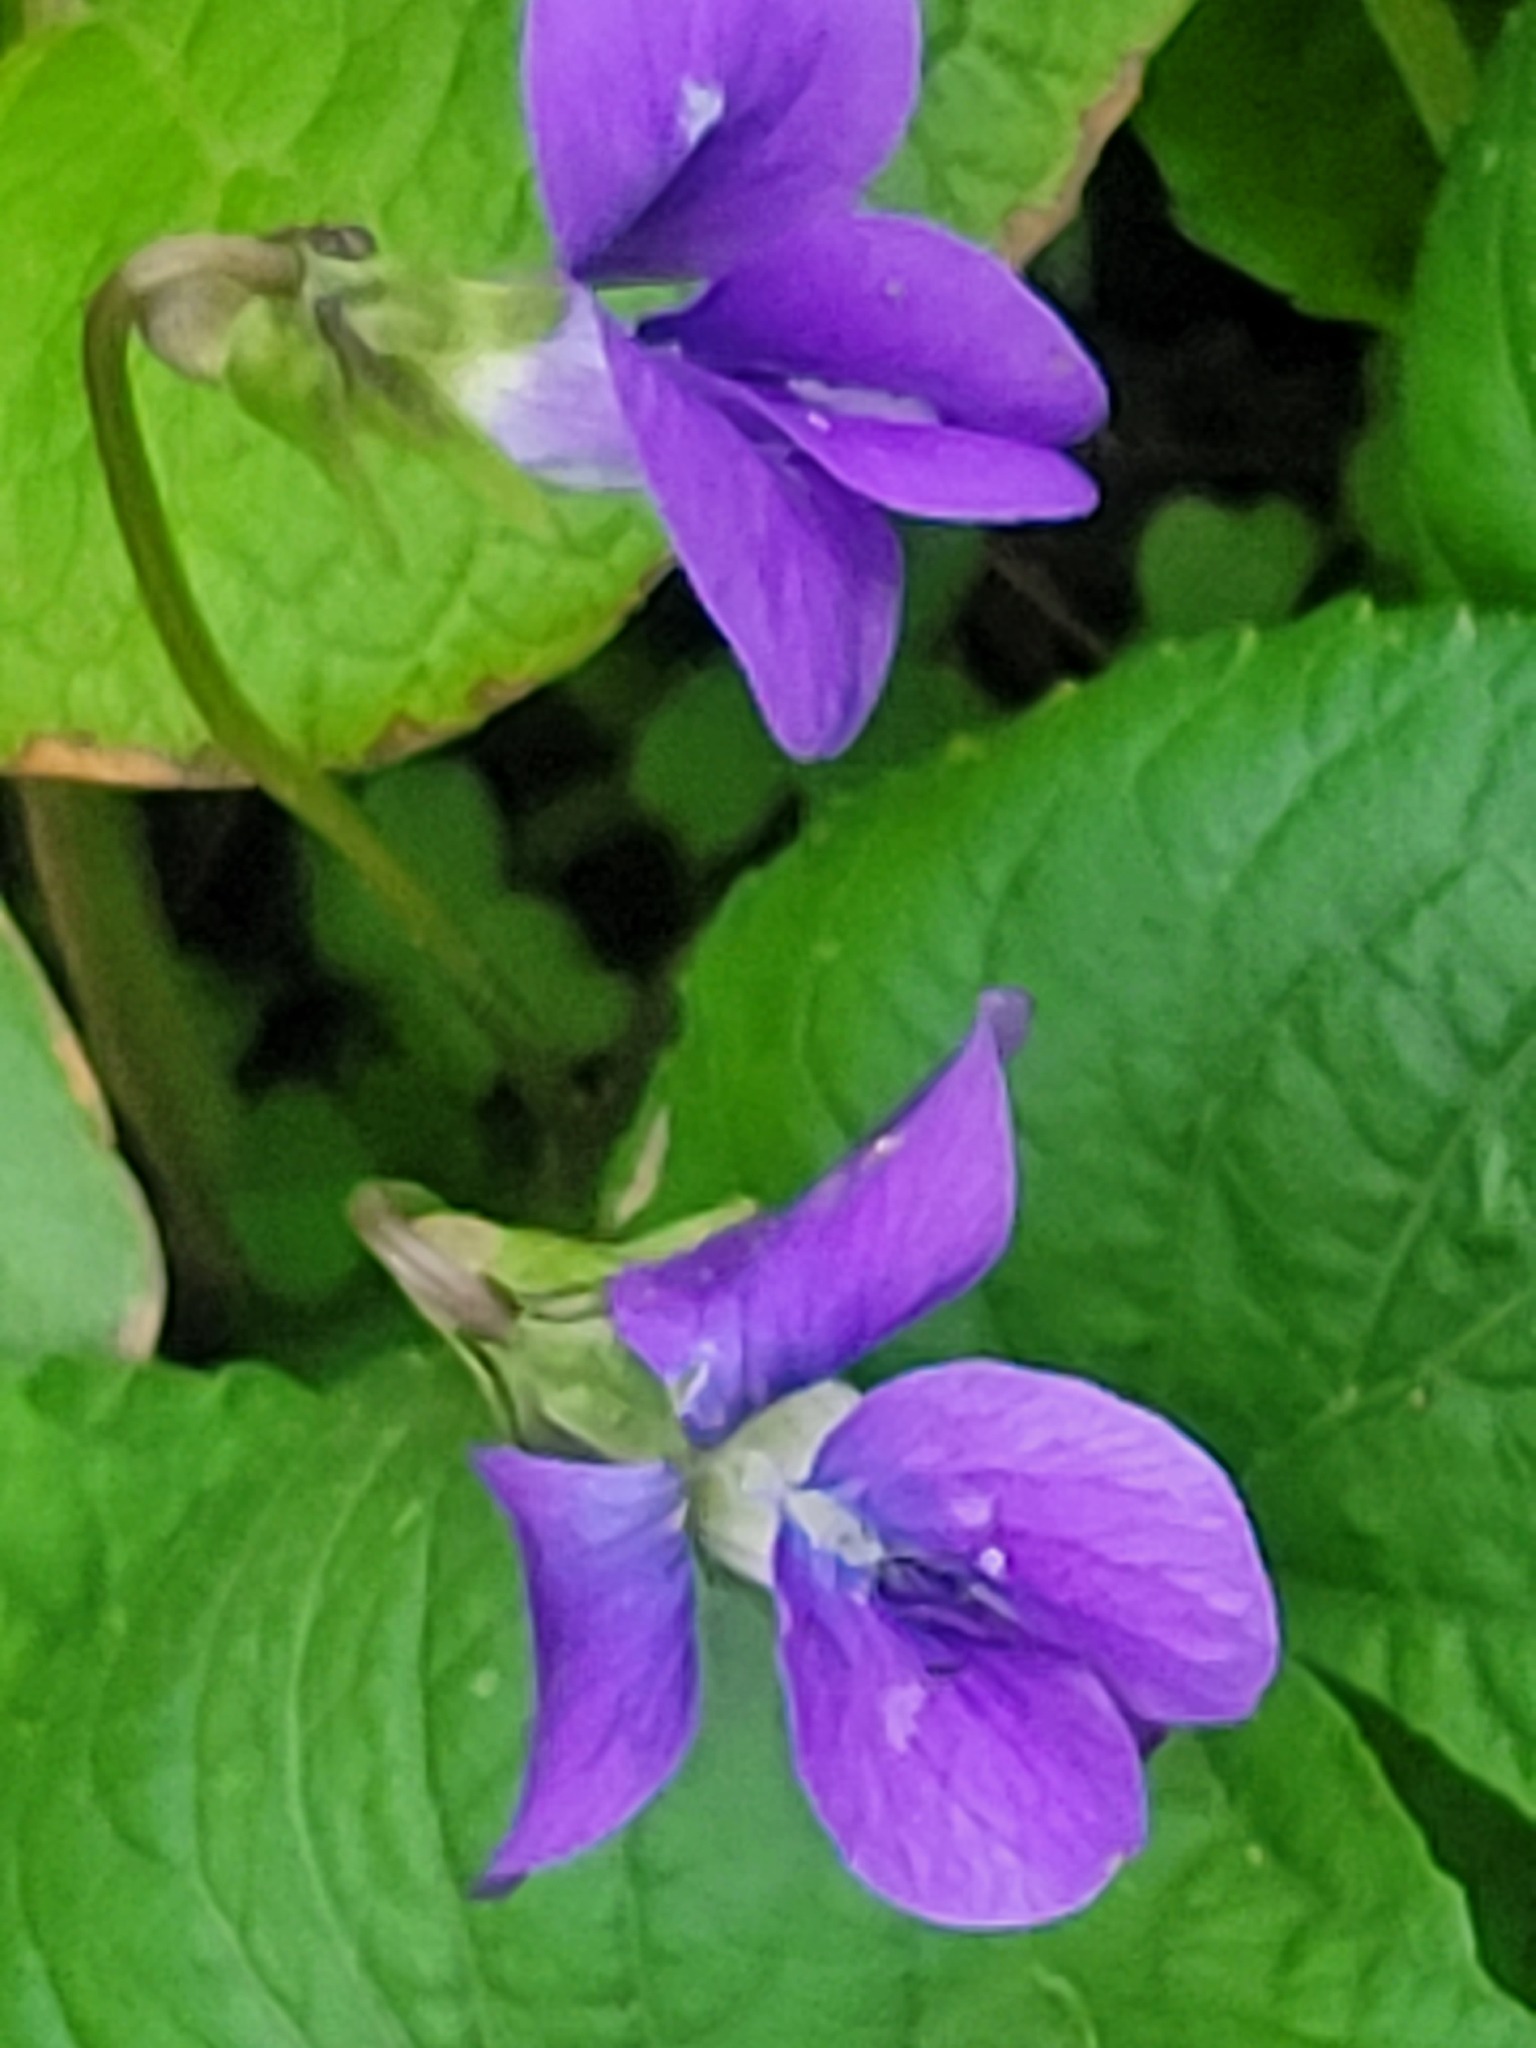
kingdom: Plantae
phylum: Tracheophyta
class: Magnoliopsida
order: Malpighiales
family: Violaceae
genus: Viola
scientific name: Viola sororia
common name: Dooryard violet
